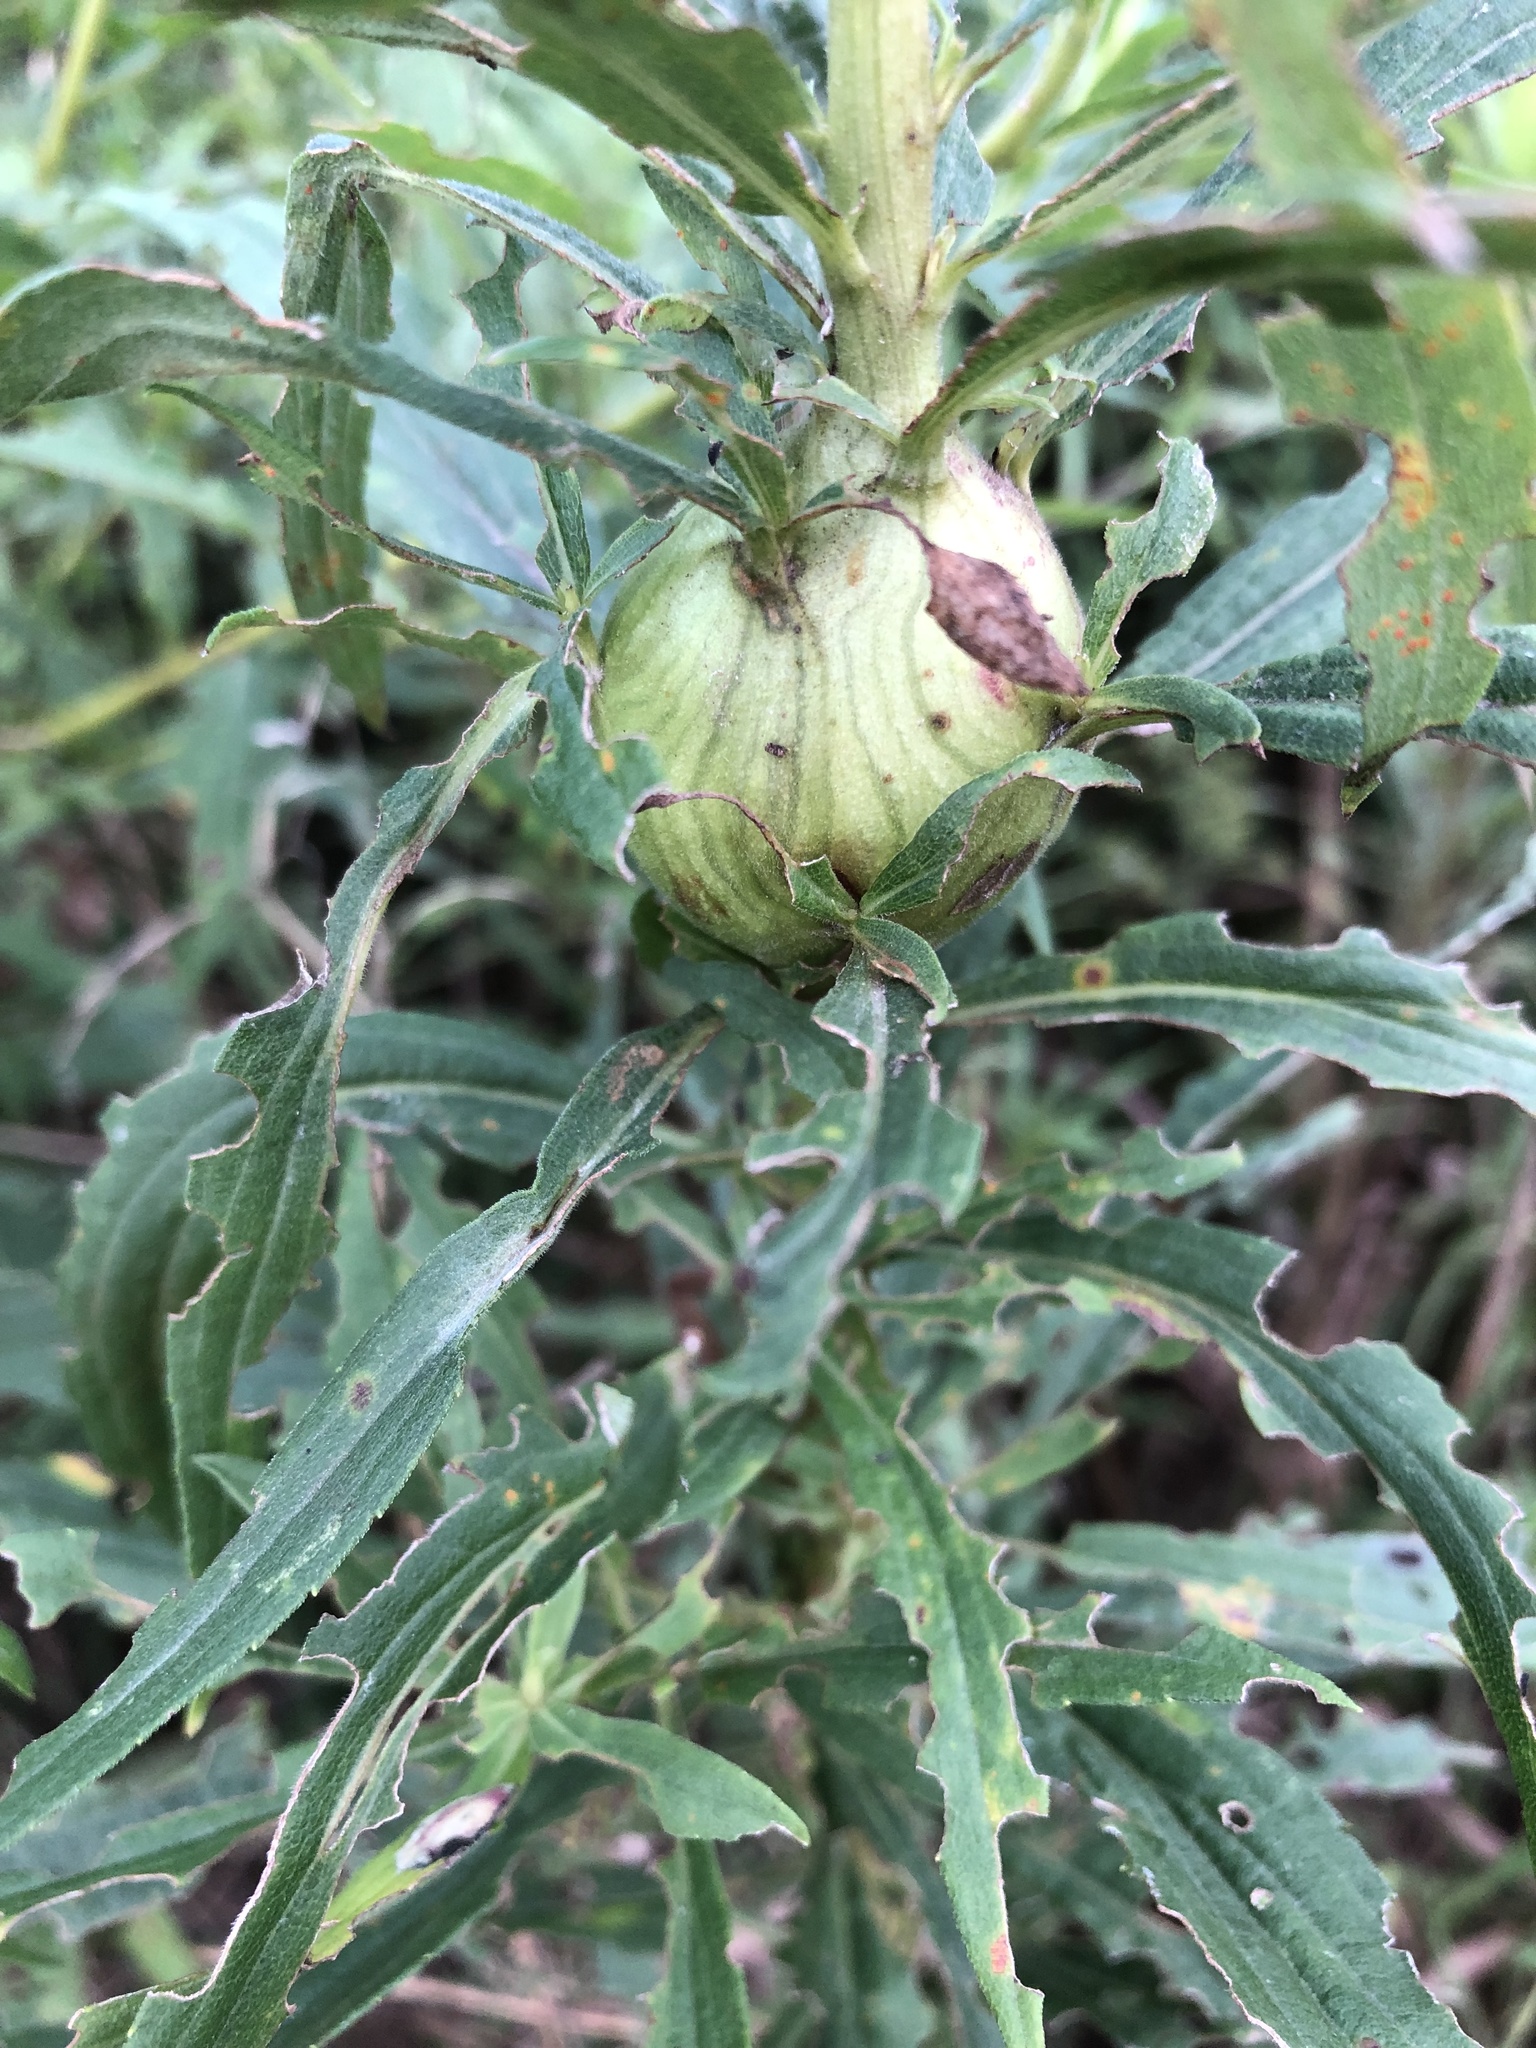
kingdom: Animalia
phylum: Arthropoda
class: Insecta
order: Diptera
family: Tephritidae
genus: Eurosta
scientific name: Eurosta solidaginis
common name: Goldenrod gall fly
